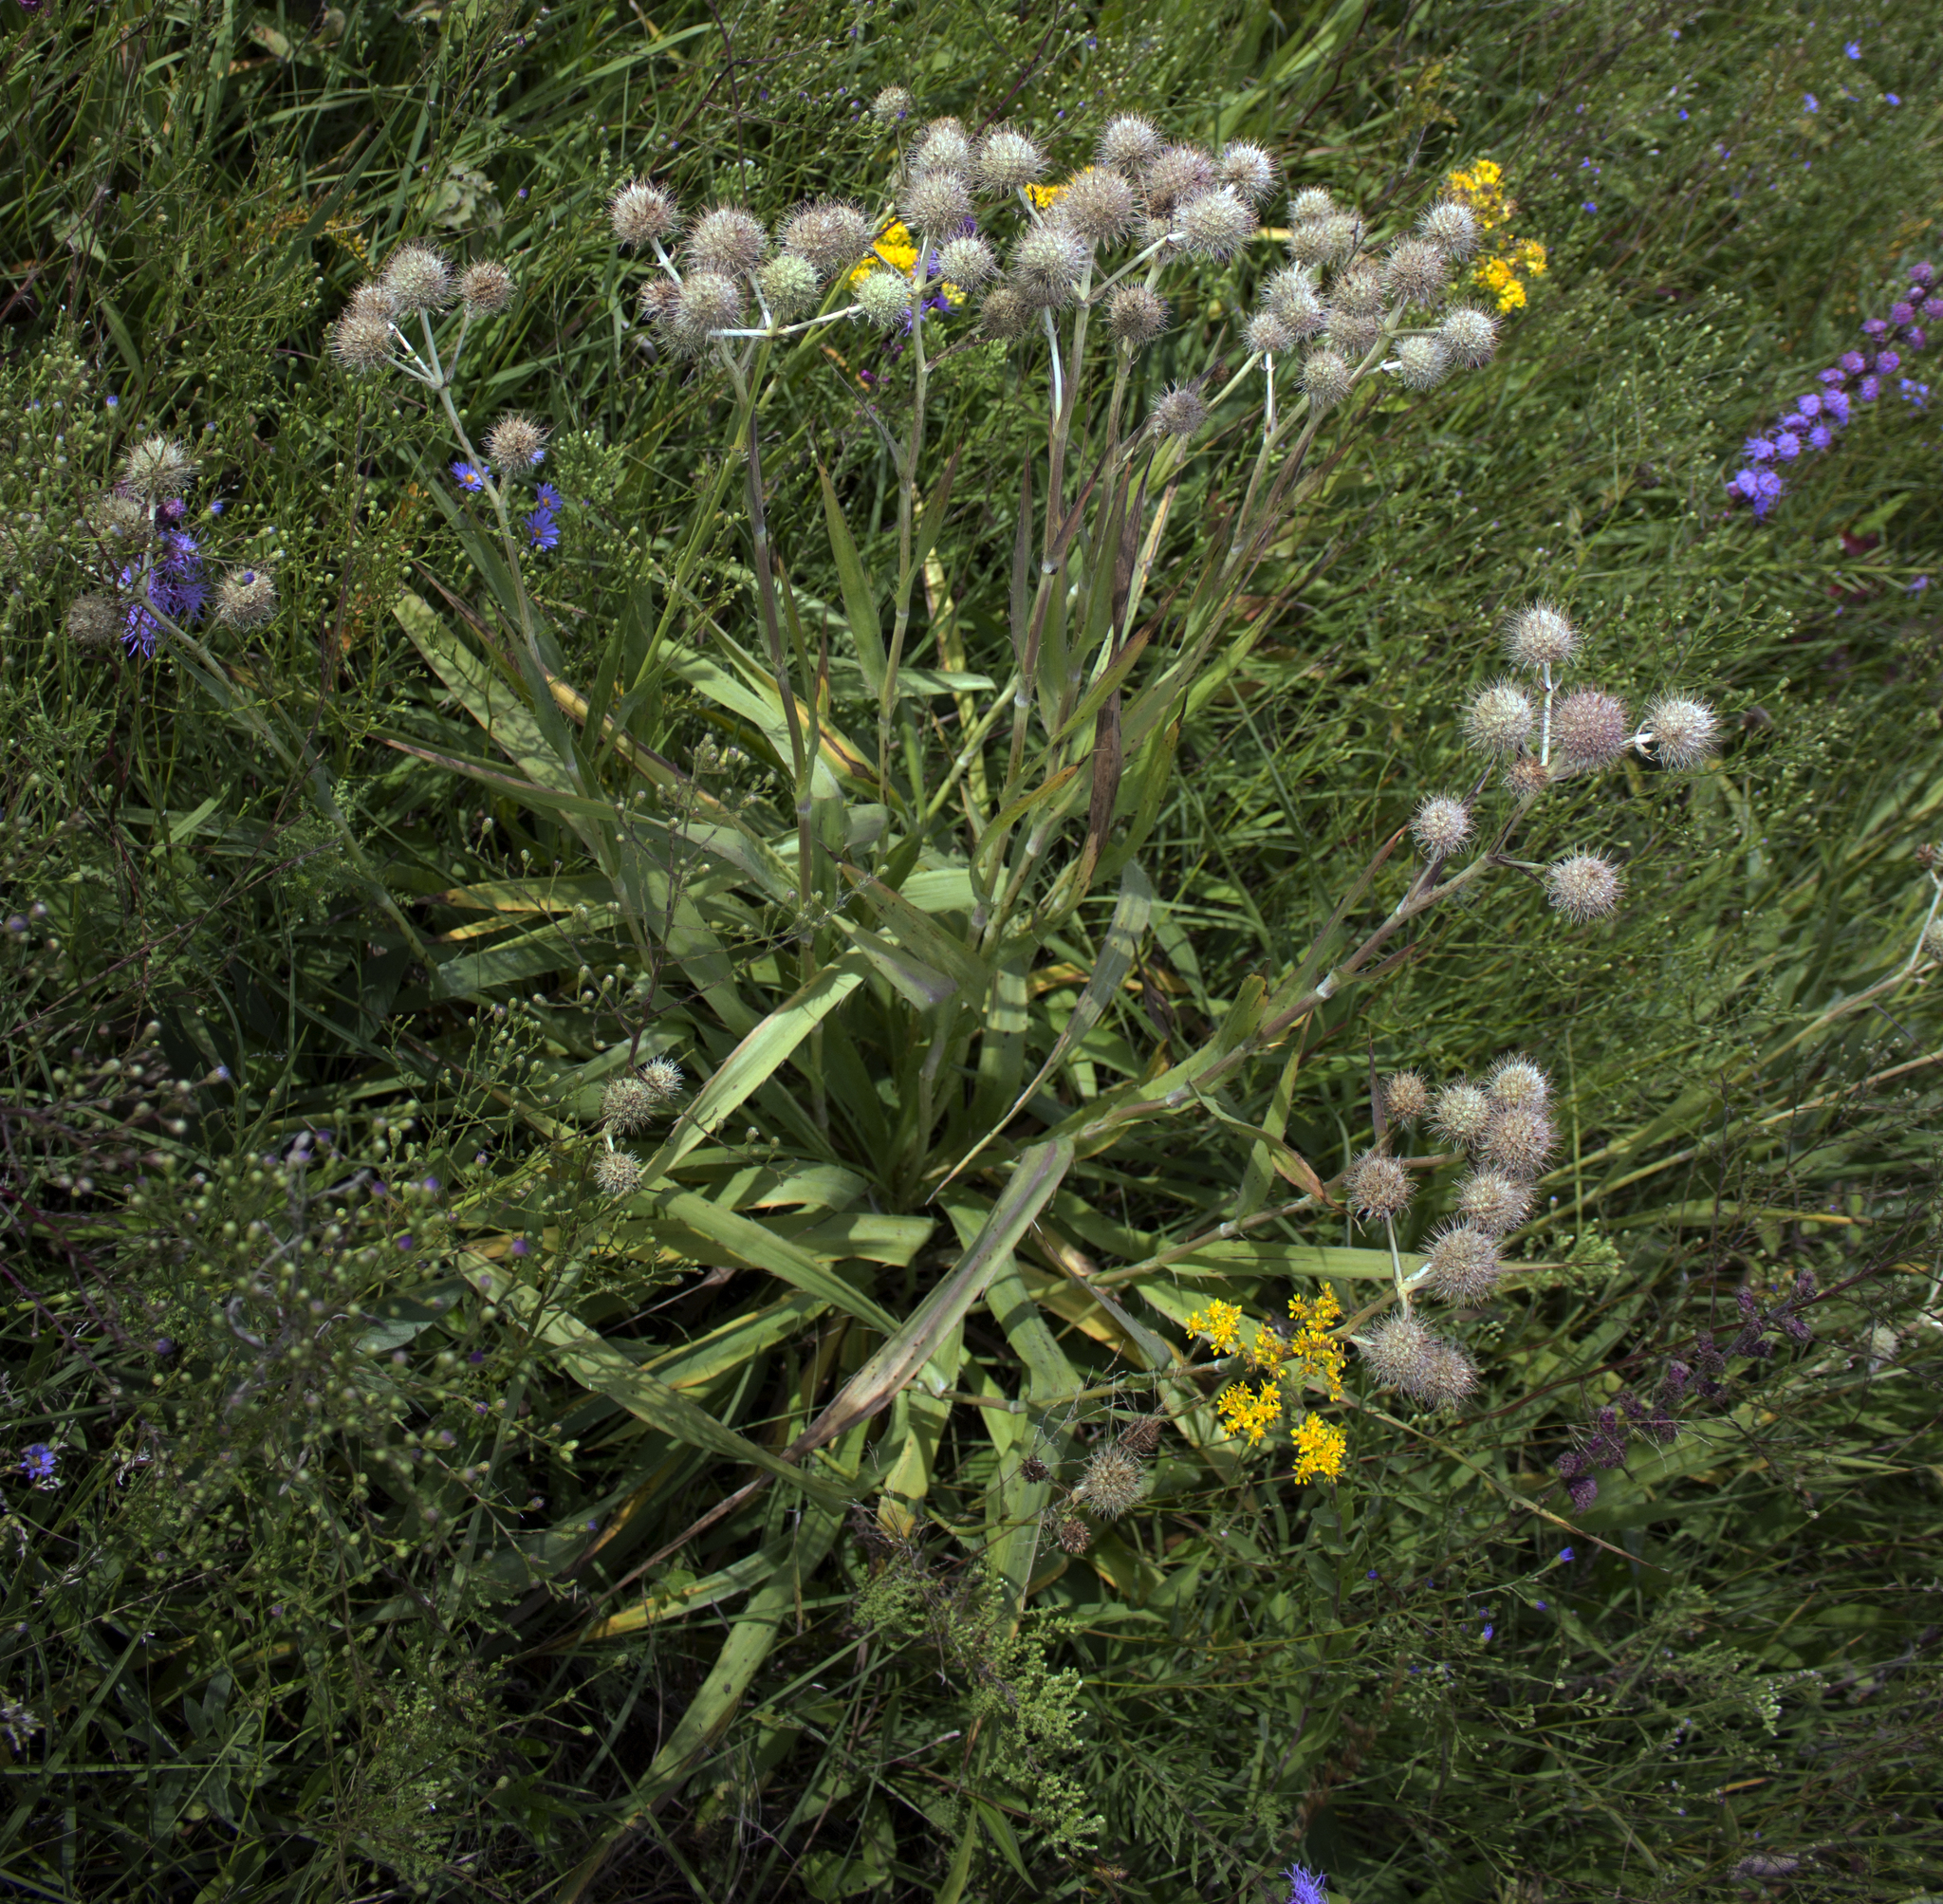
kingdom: Plantae
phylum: Tracheophyta
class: Magnoliopsida
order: Apiales
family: Apiaceae
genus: Eryngium
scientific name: Eryngium yuccifolium
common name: Button eryngo
